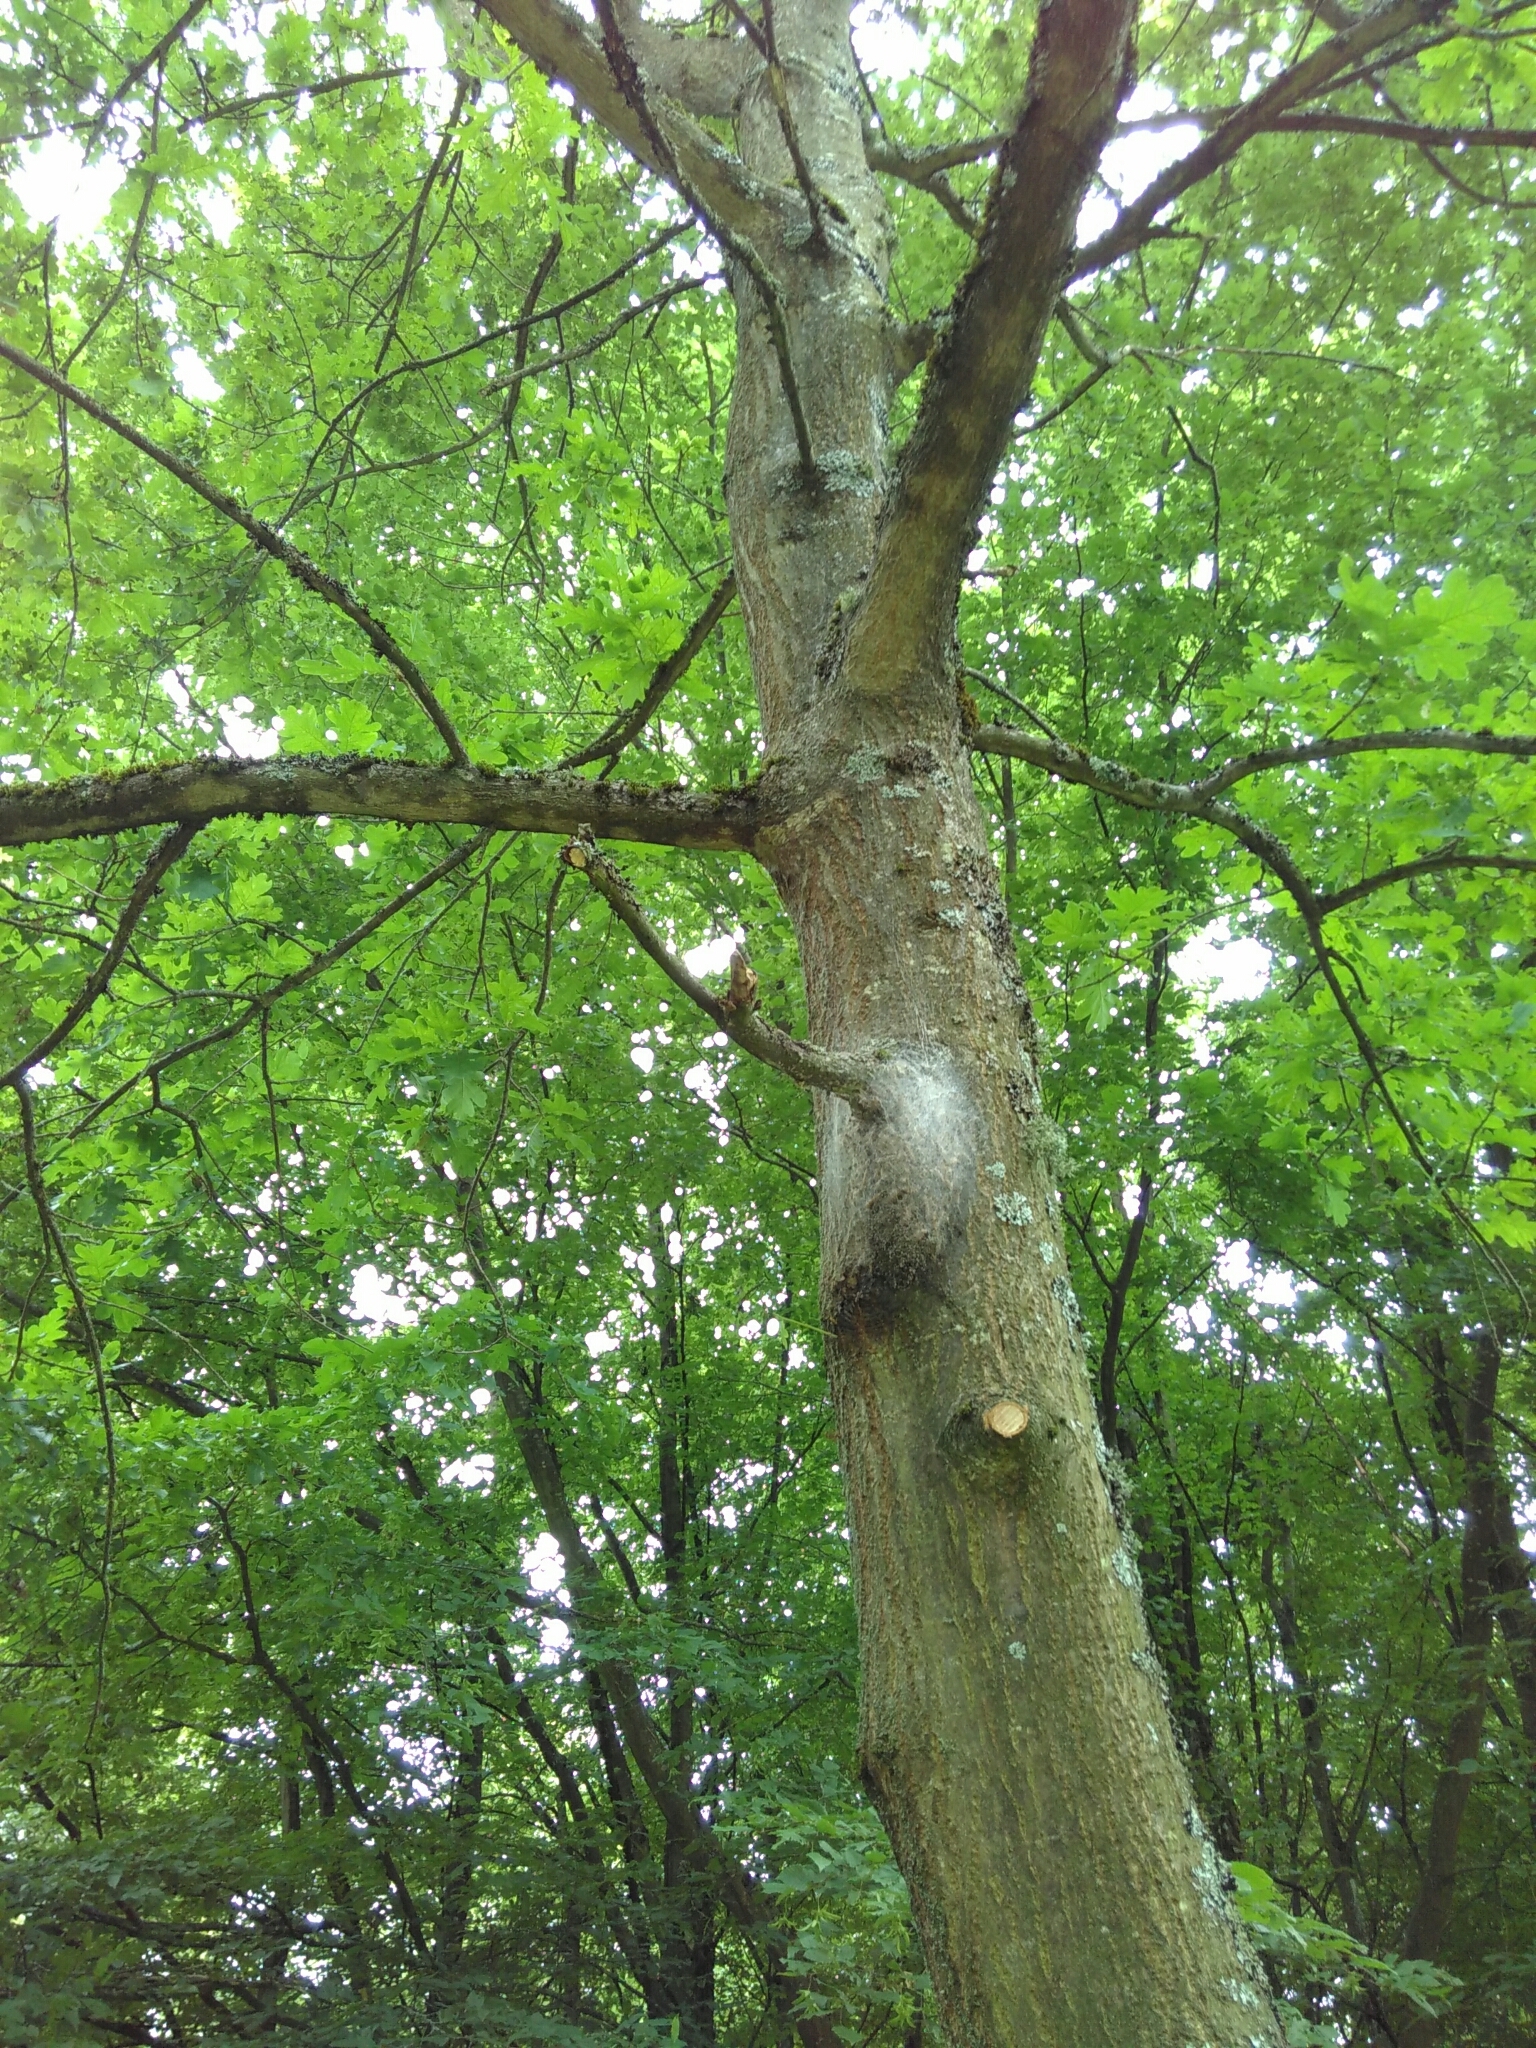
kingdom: Animalia
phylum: Arthropoda
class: Insecta
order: Lepidoptera
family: Notodontidae
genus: Thaumetopoea
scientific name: Thaumetopoea processionea
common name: Oak processionea
